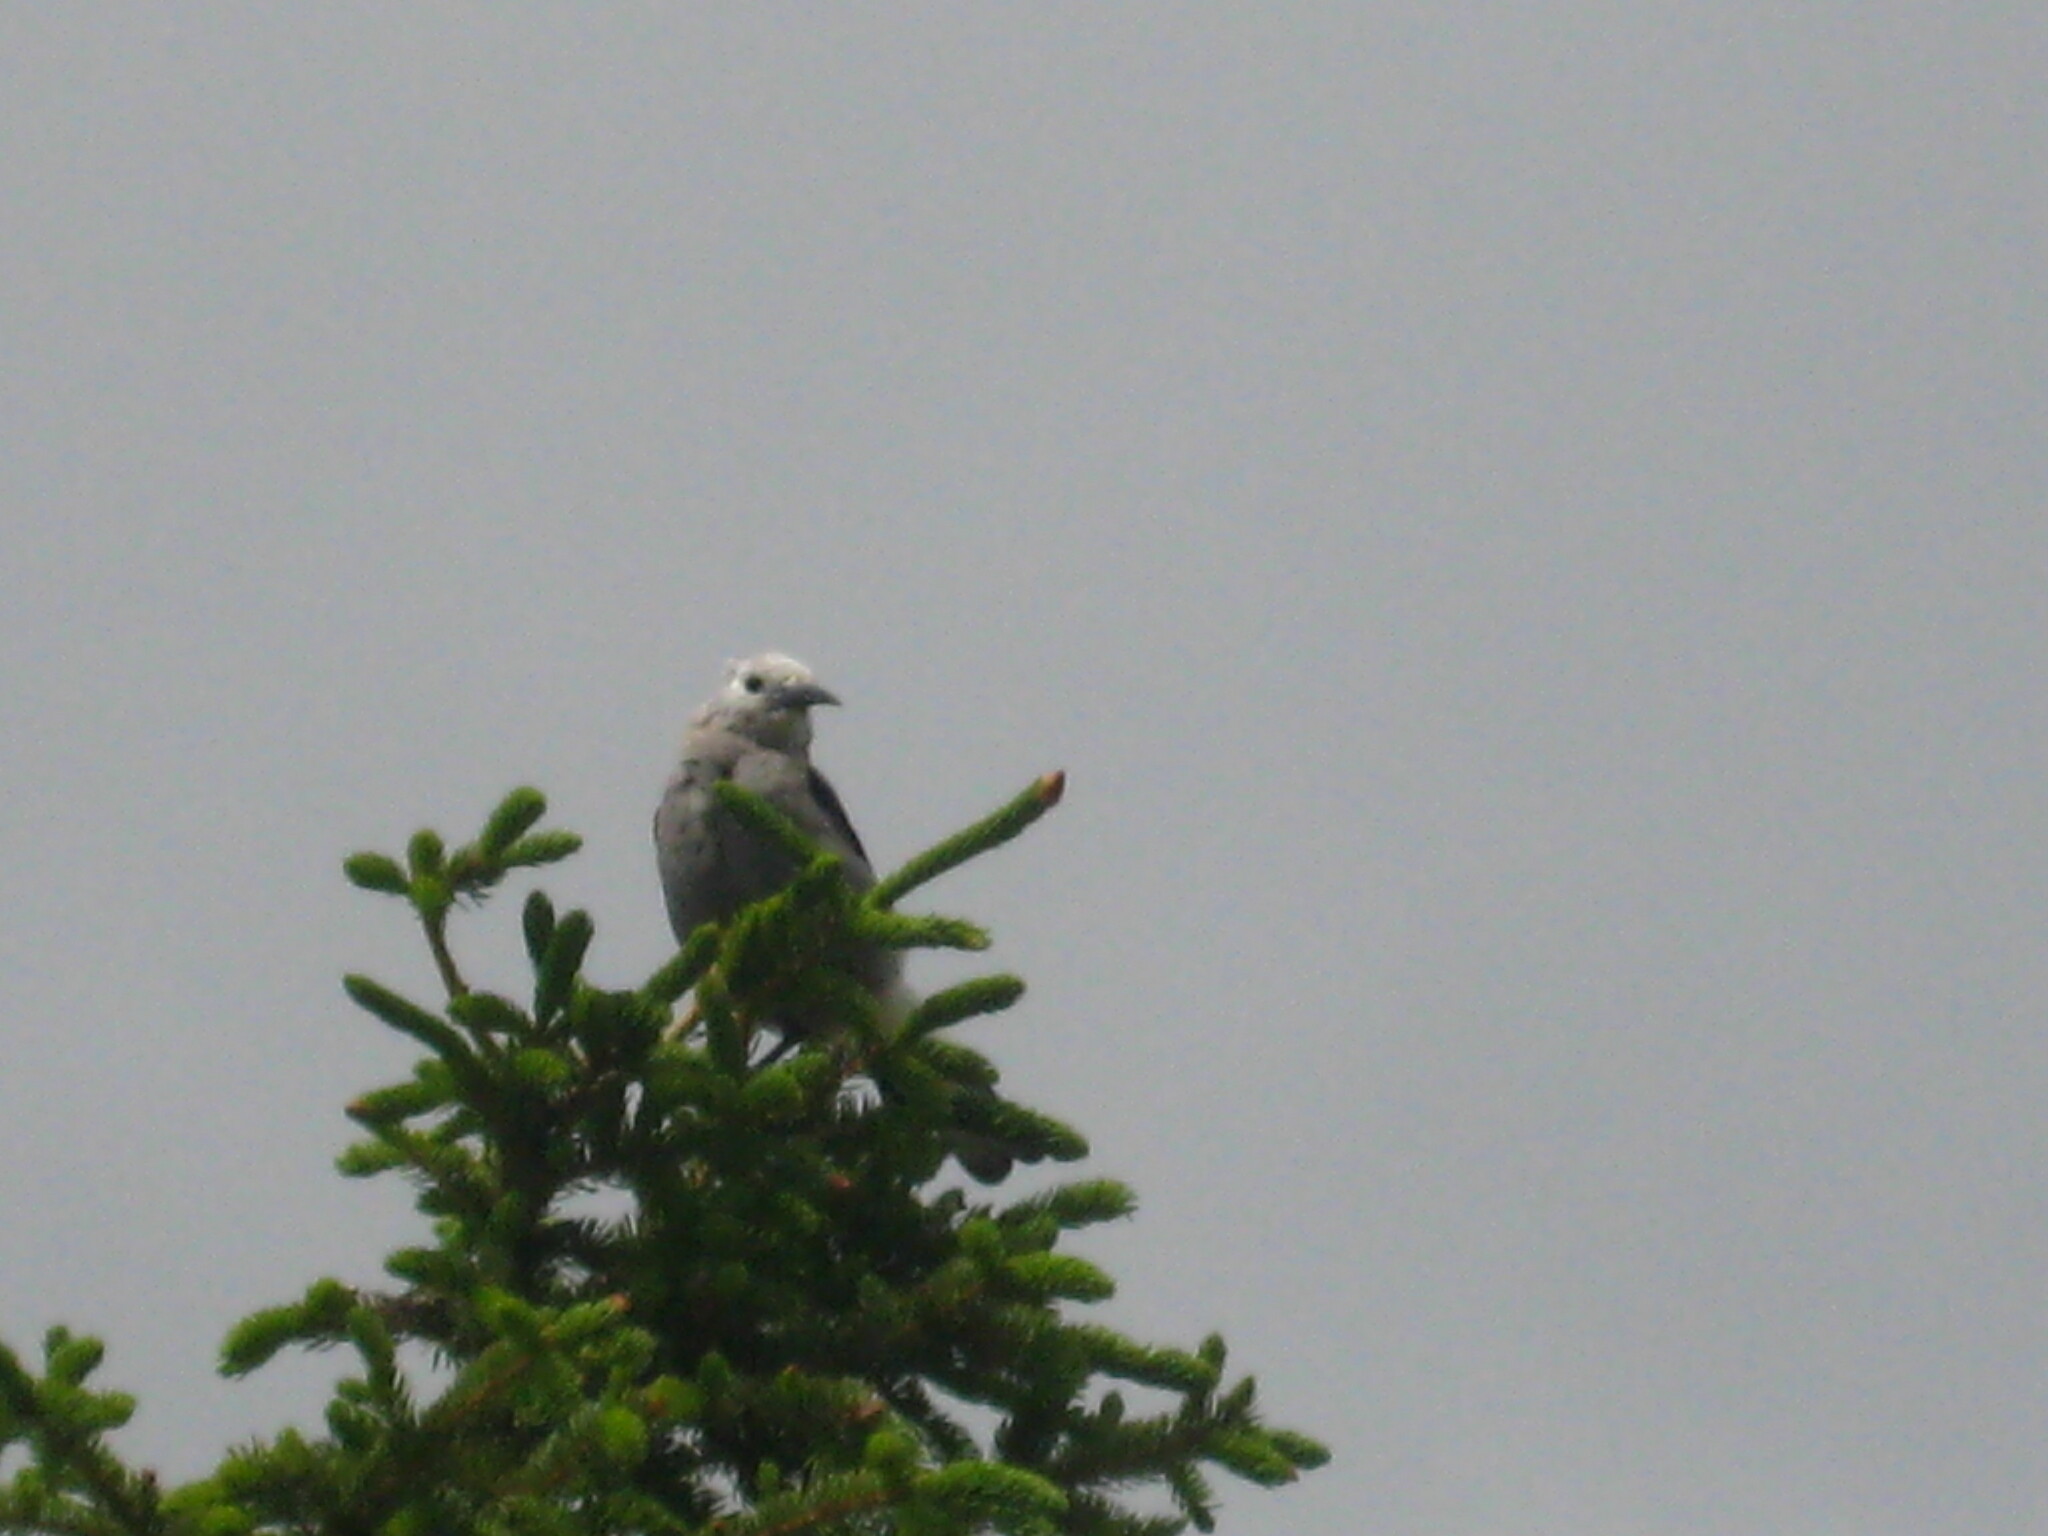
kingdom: Animalia
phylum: Chordata
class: Aves
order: Passeriformes
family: Corvidae
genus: Nucifraga
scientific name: Nucifraga columbiana
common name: Clark's nutcracker
